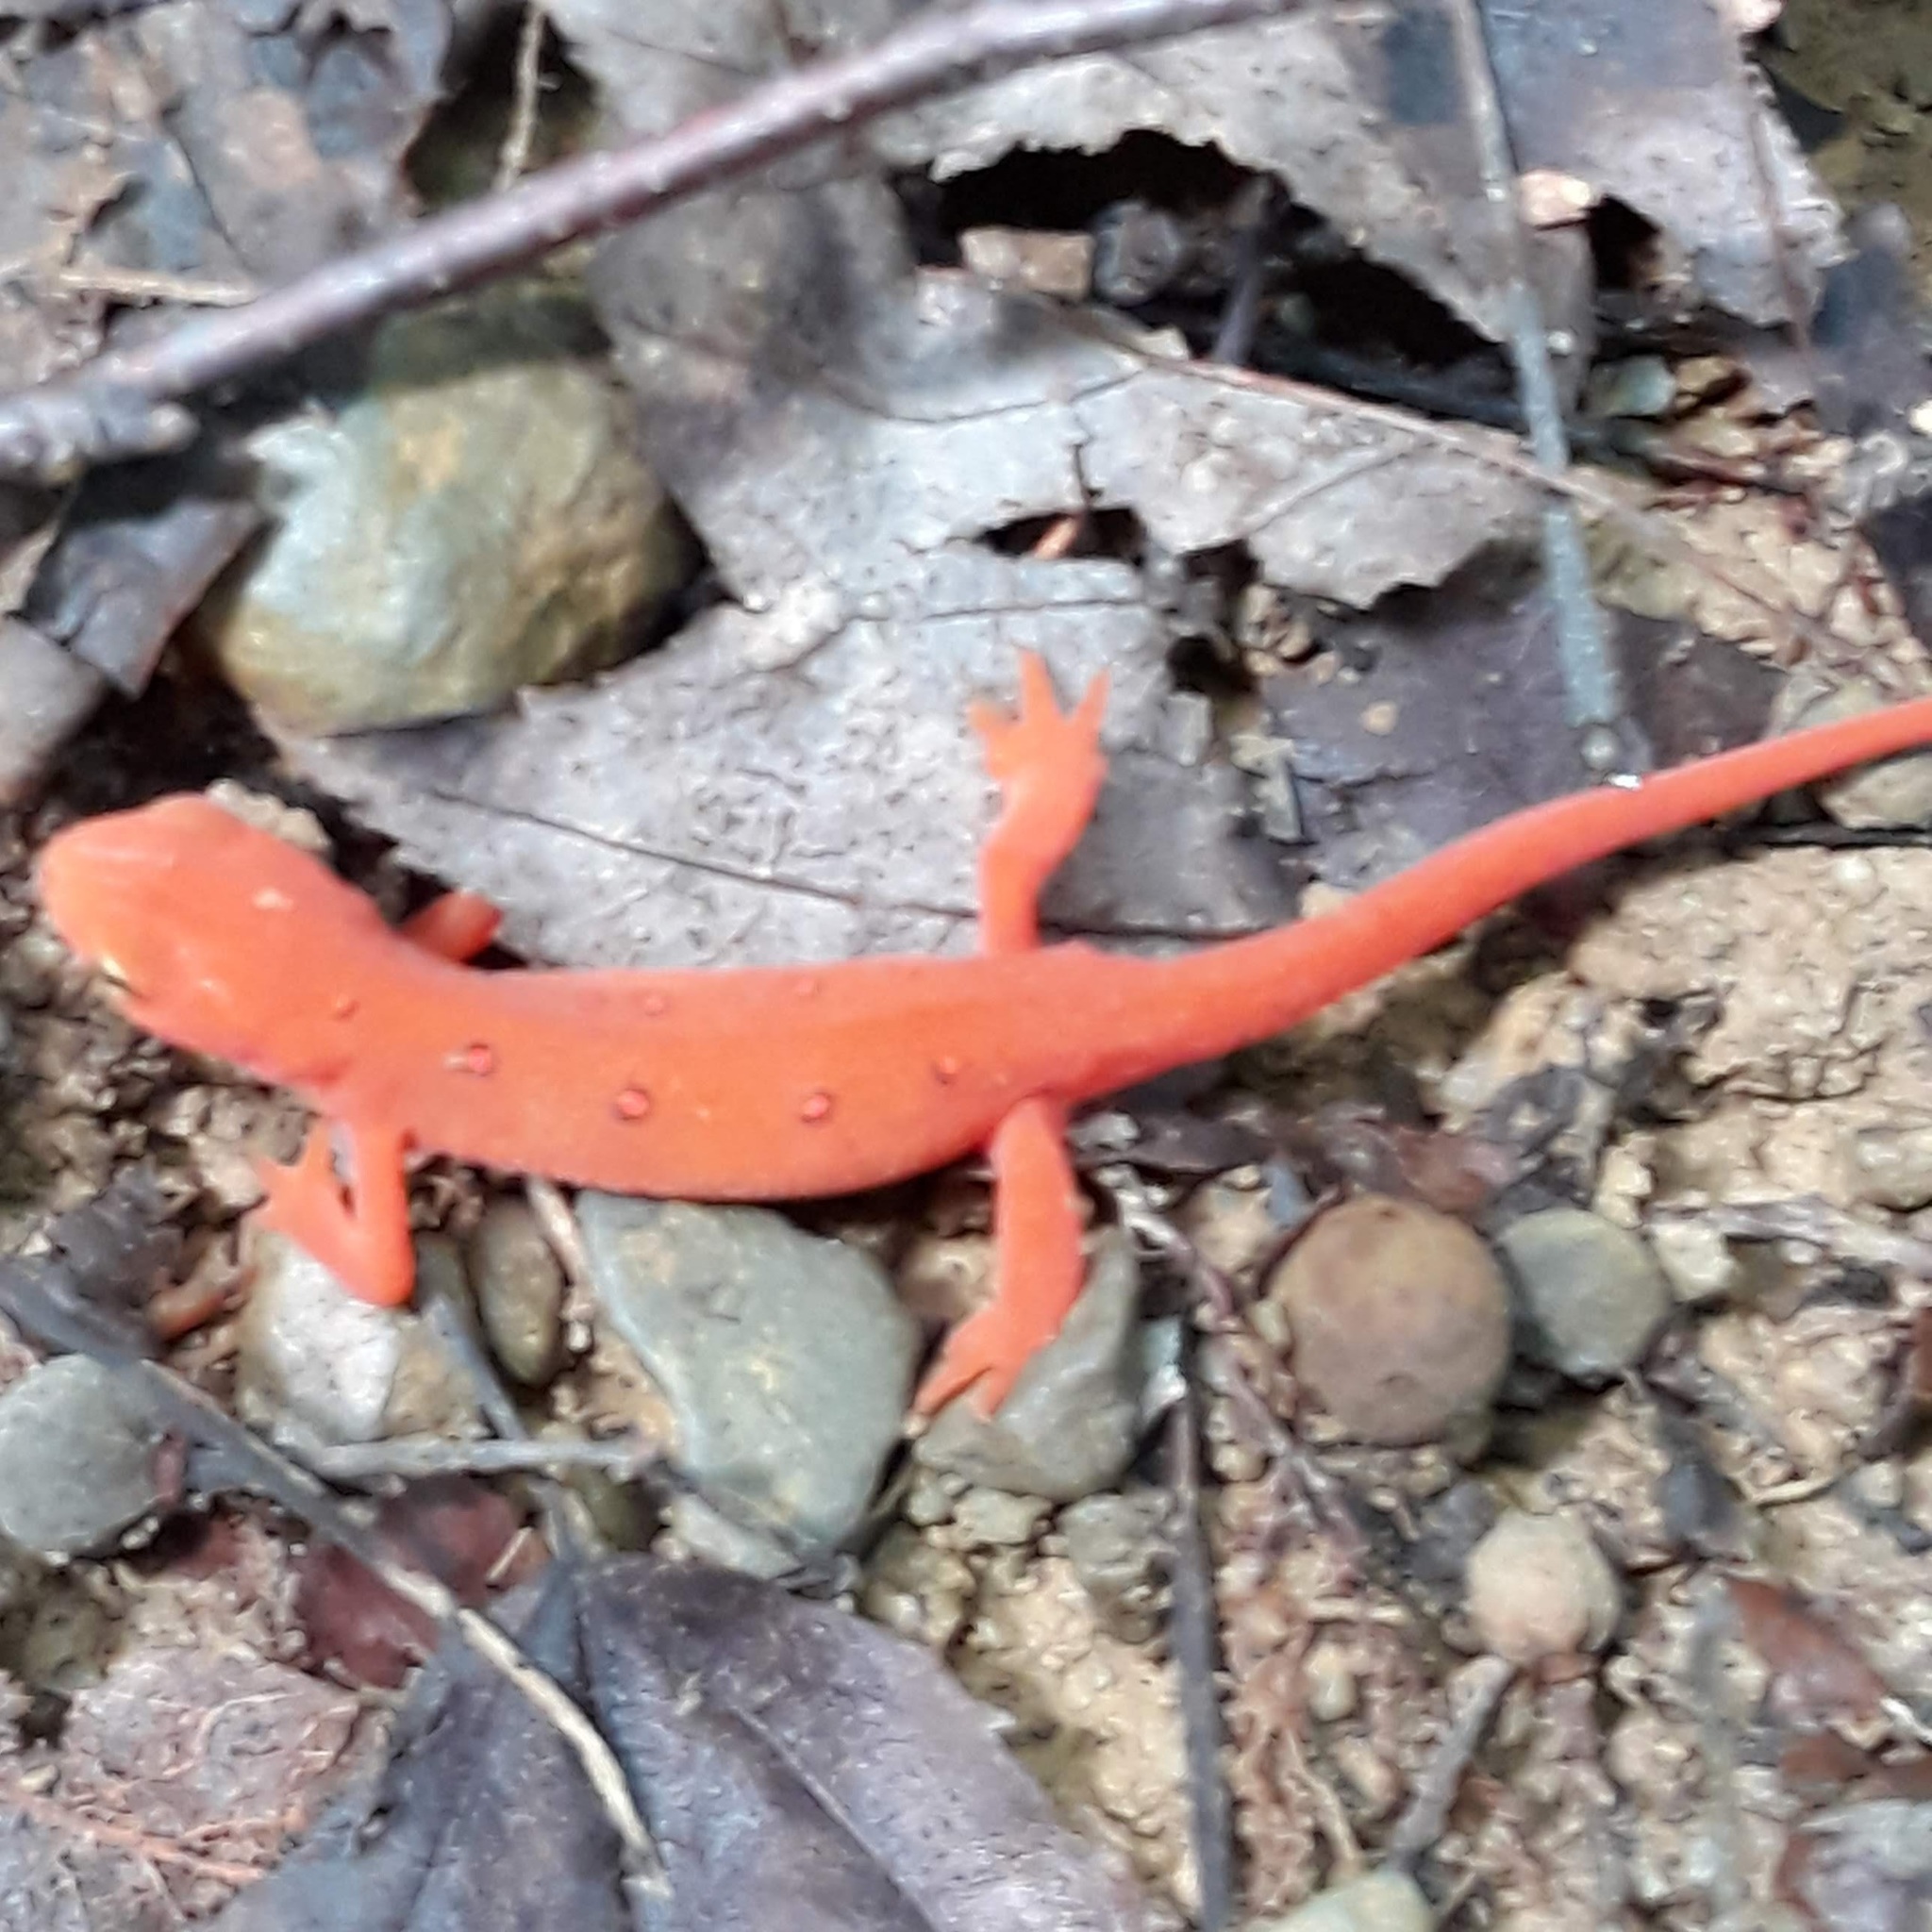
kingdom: Animalia
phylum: Chordata
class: Amphibia
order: Caudata
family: Salamandridae
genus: Notophthalmus
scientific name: Notophthalmus viridescens
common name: Eastern newt
